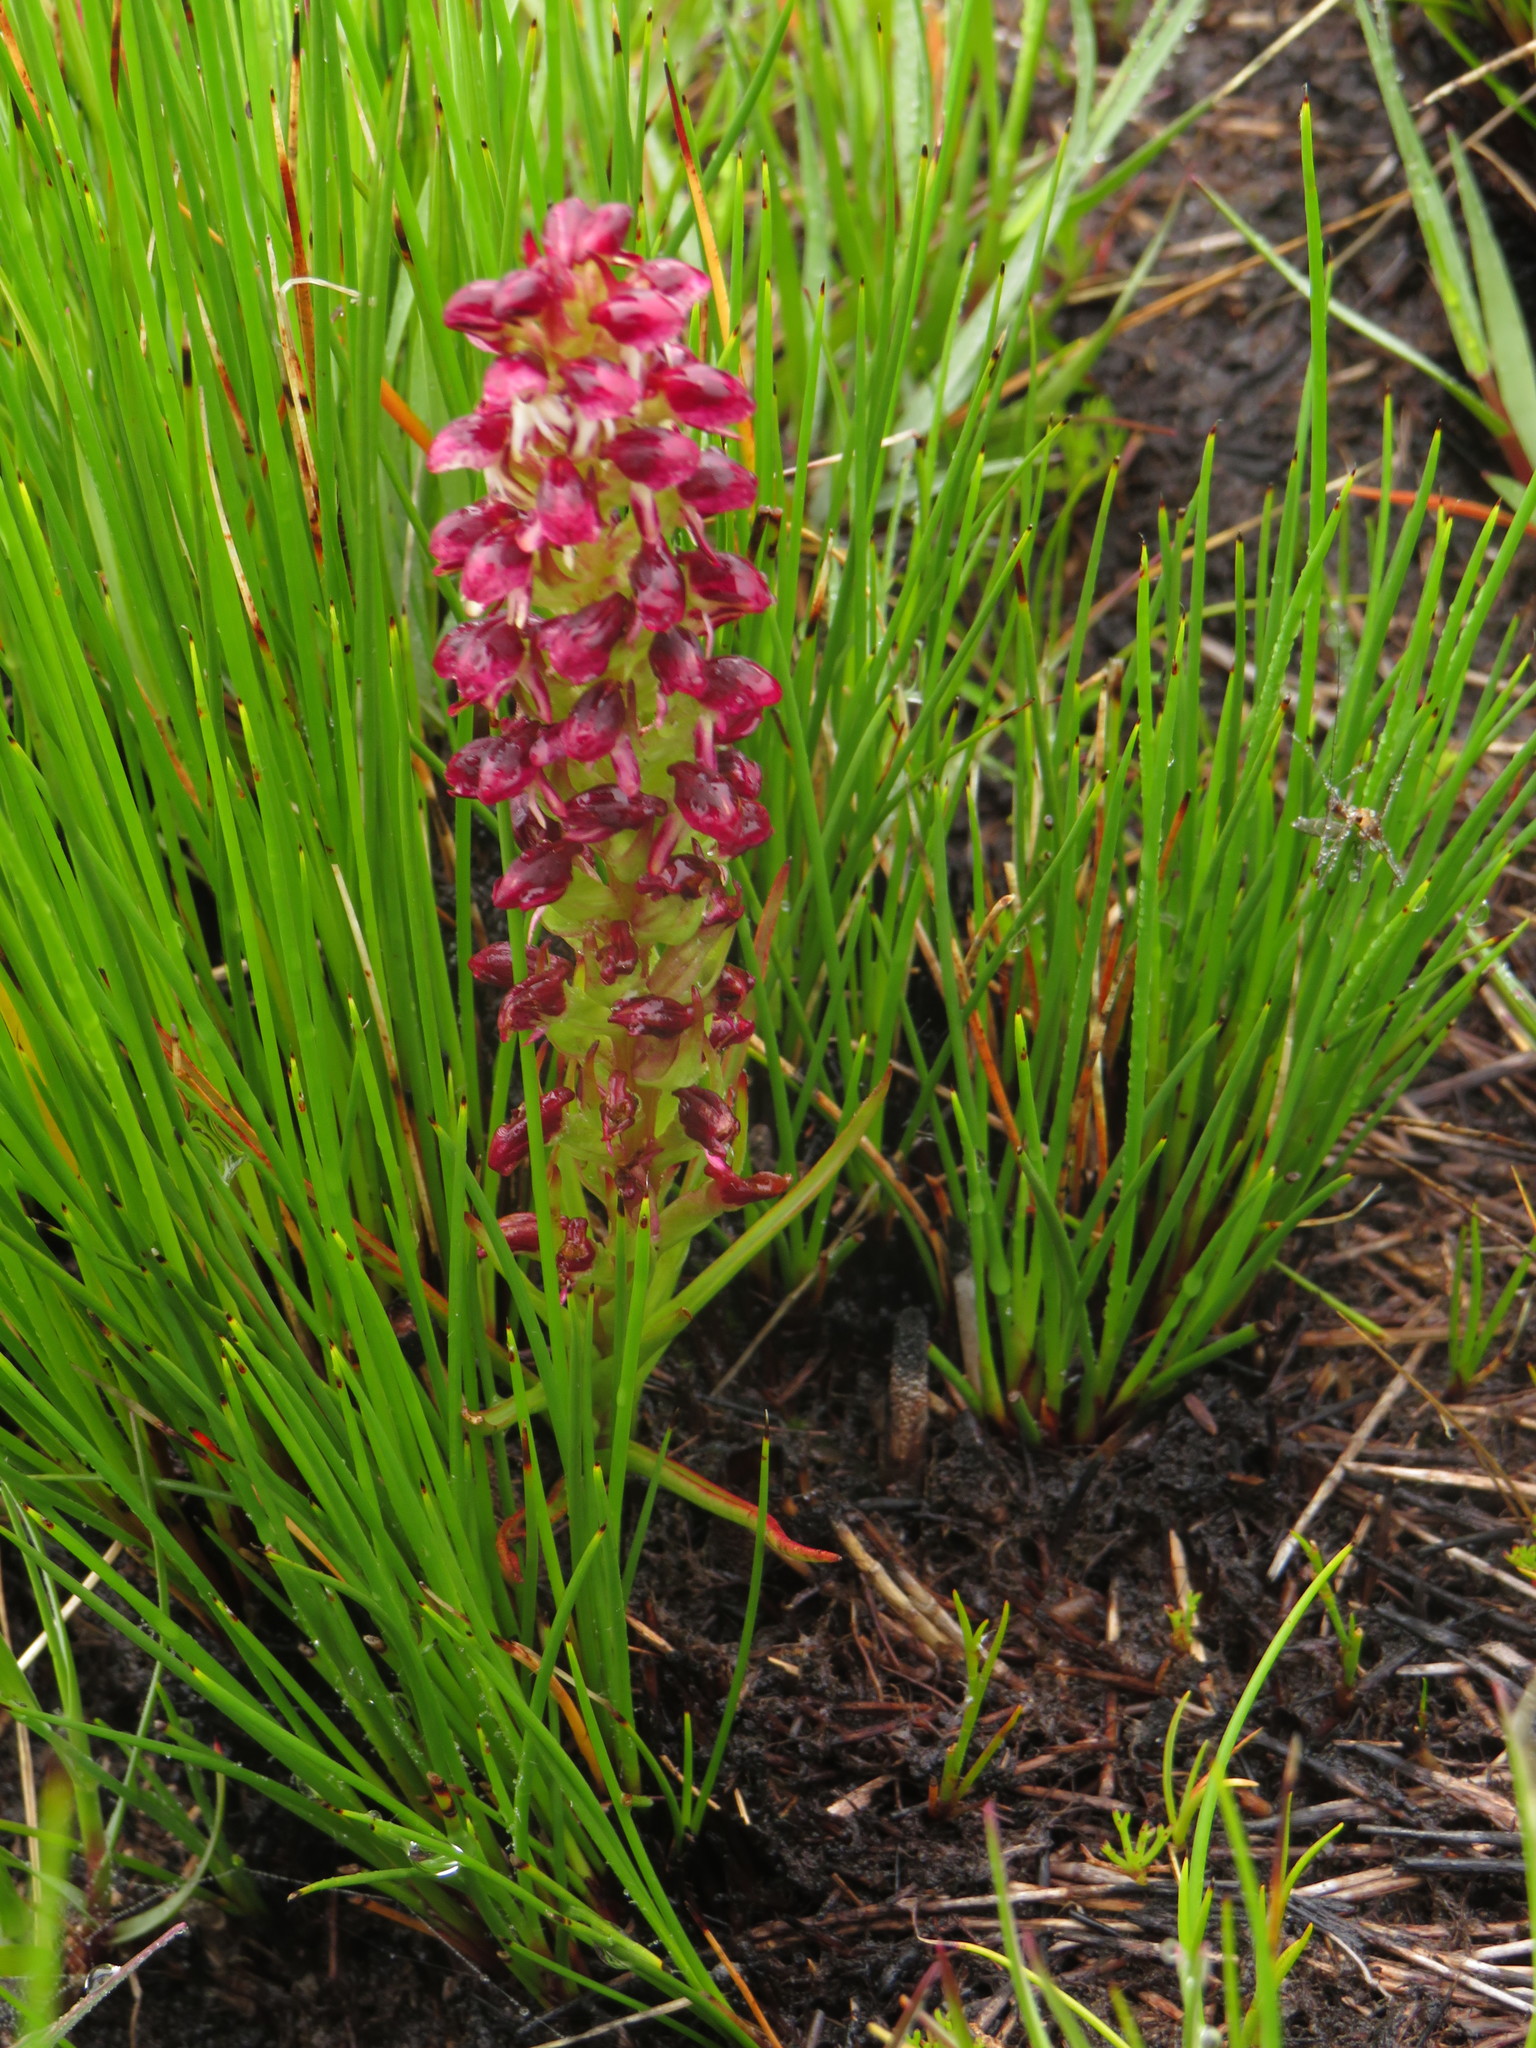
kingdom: Plantae
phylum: Tracheophyta
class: Liliopsida
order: Asparagales
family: Orchidaceae
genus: Disa
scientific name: Disa
